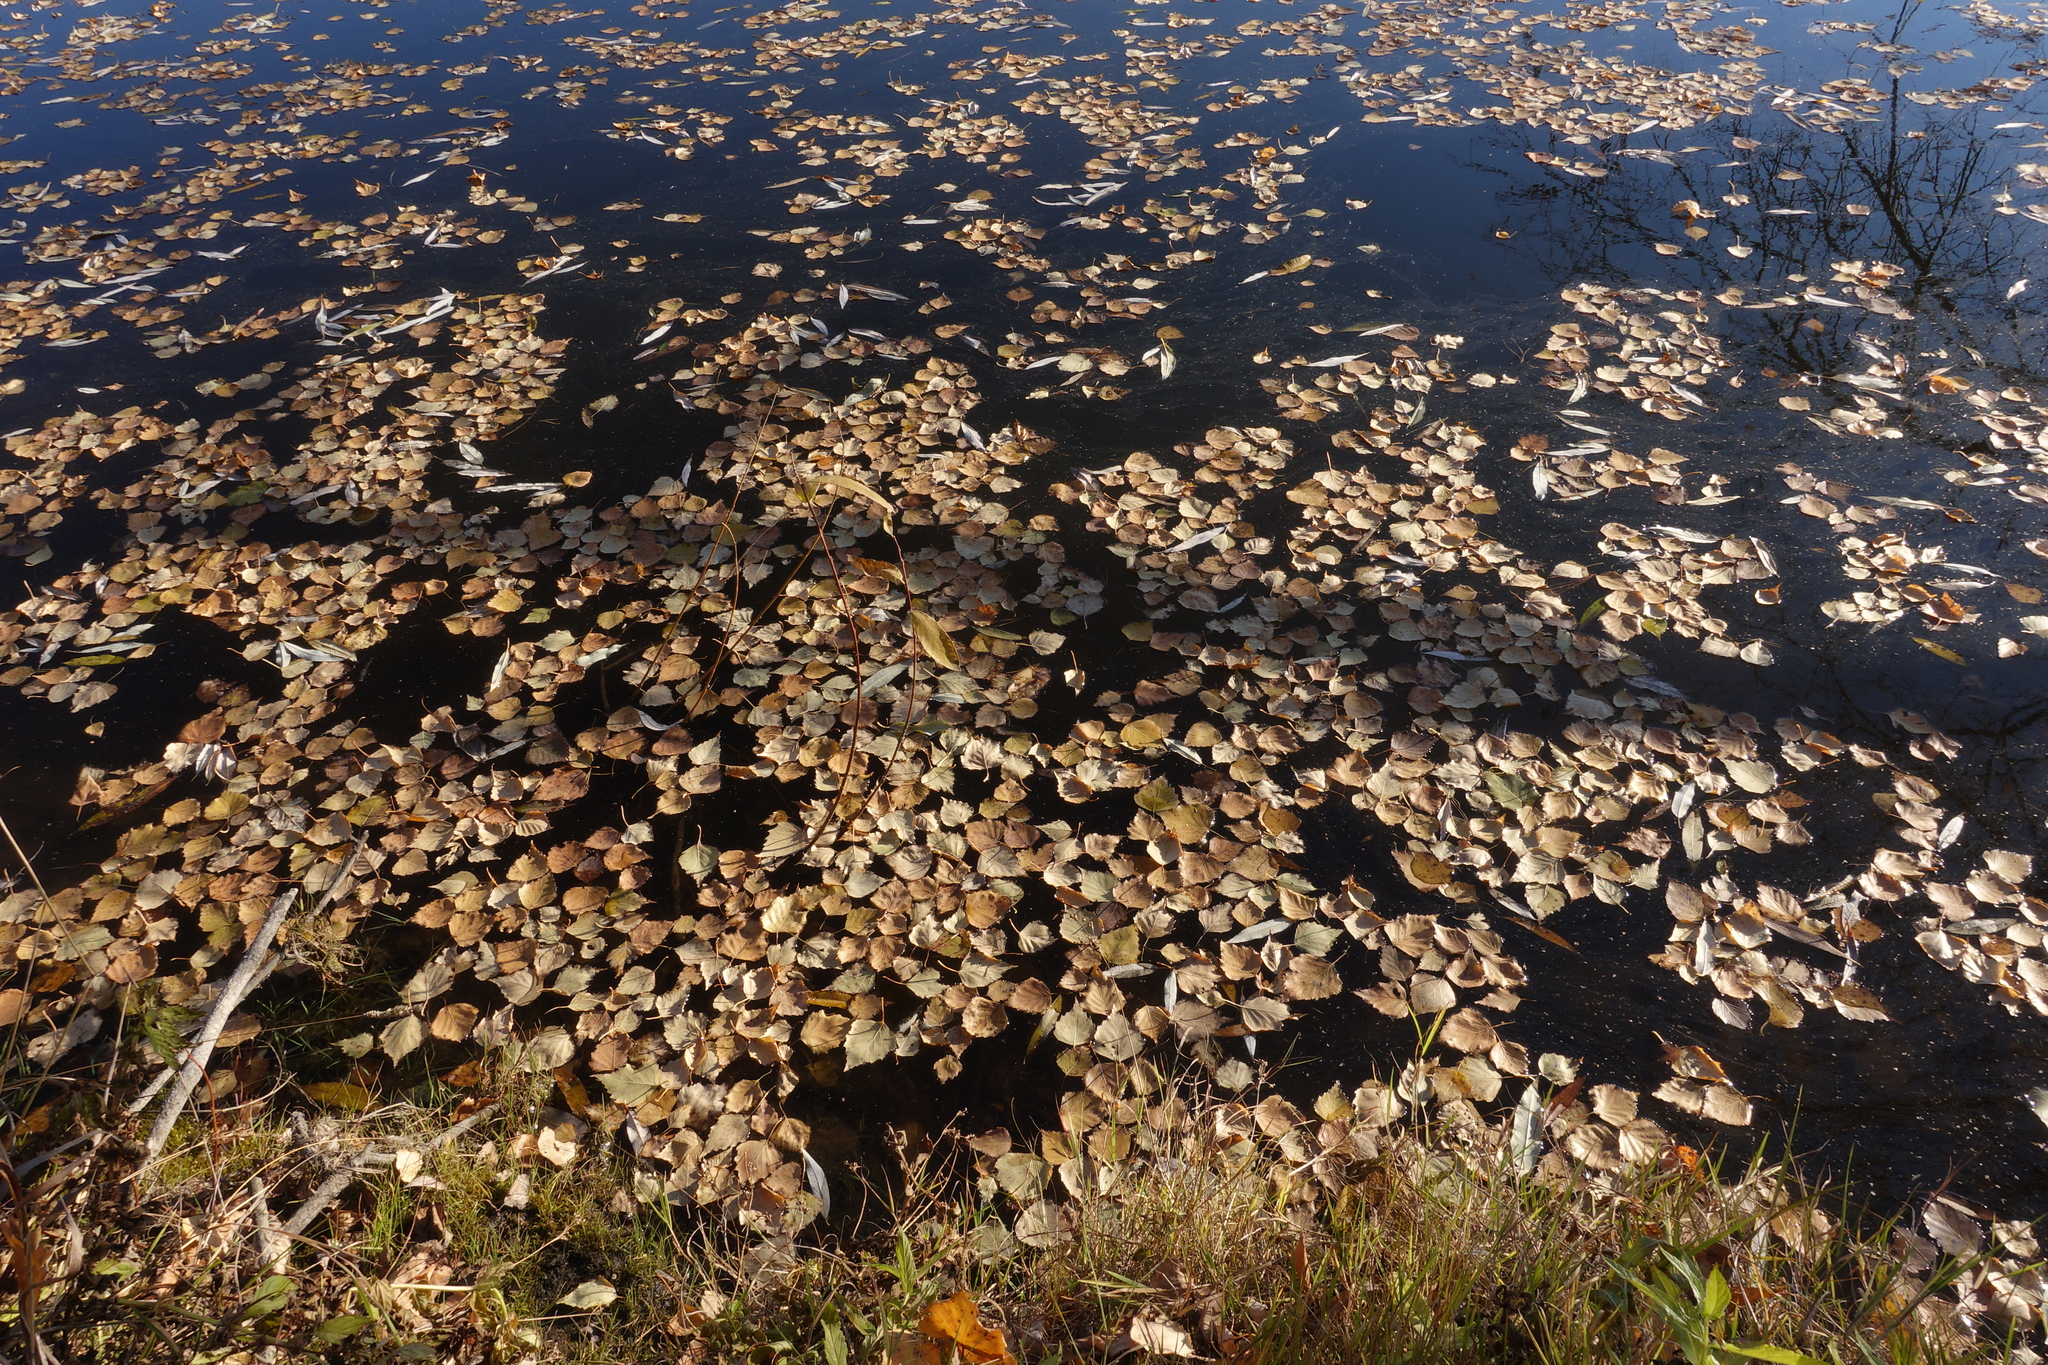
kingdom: Plantae
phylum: Tracheophyta
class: Magnoliopsida
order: Fagales
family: Betulaceae
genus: Betula
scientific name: Betula pendula
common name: Silver birch
